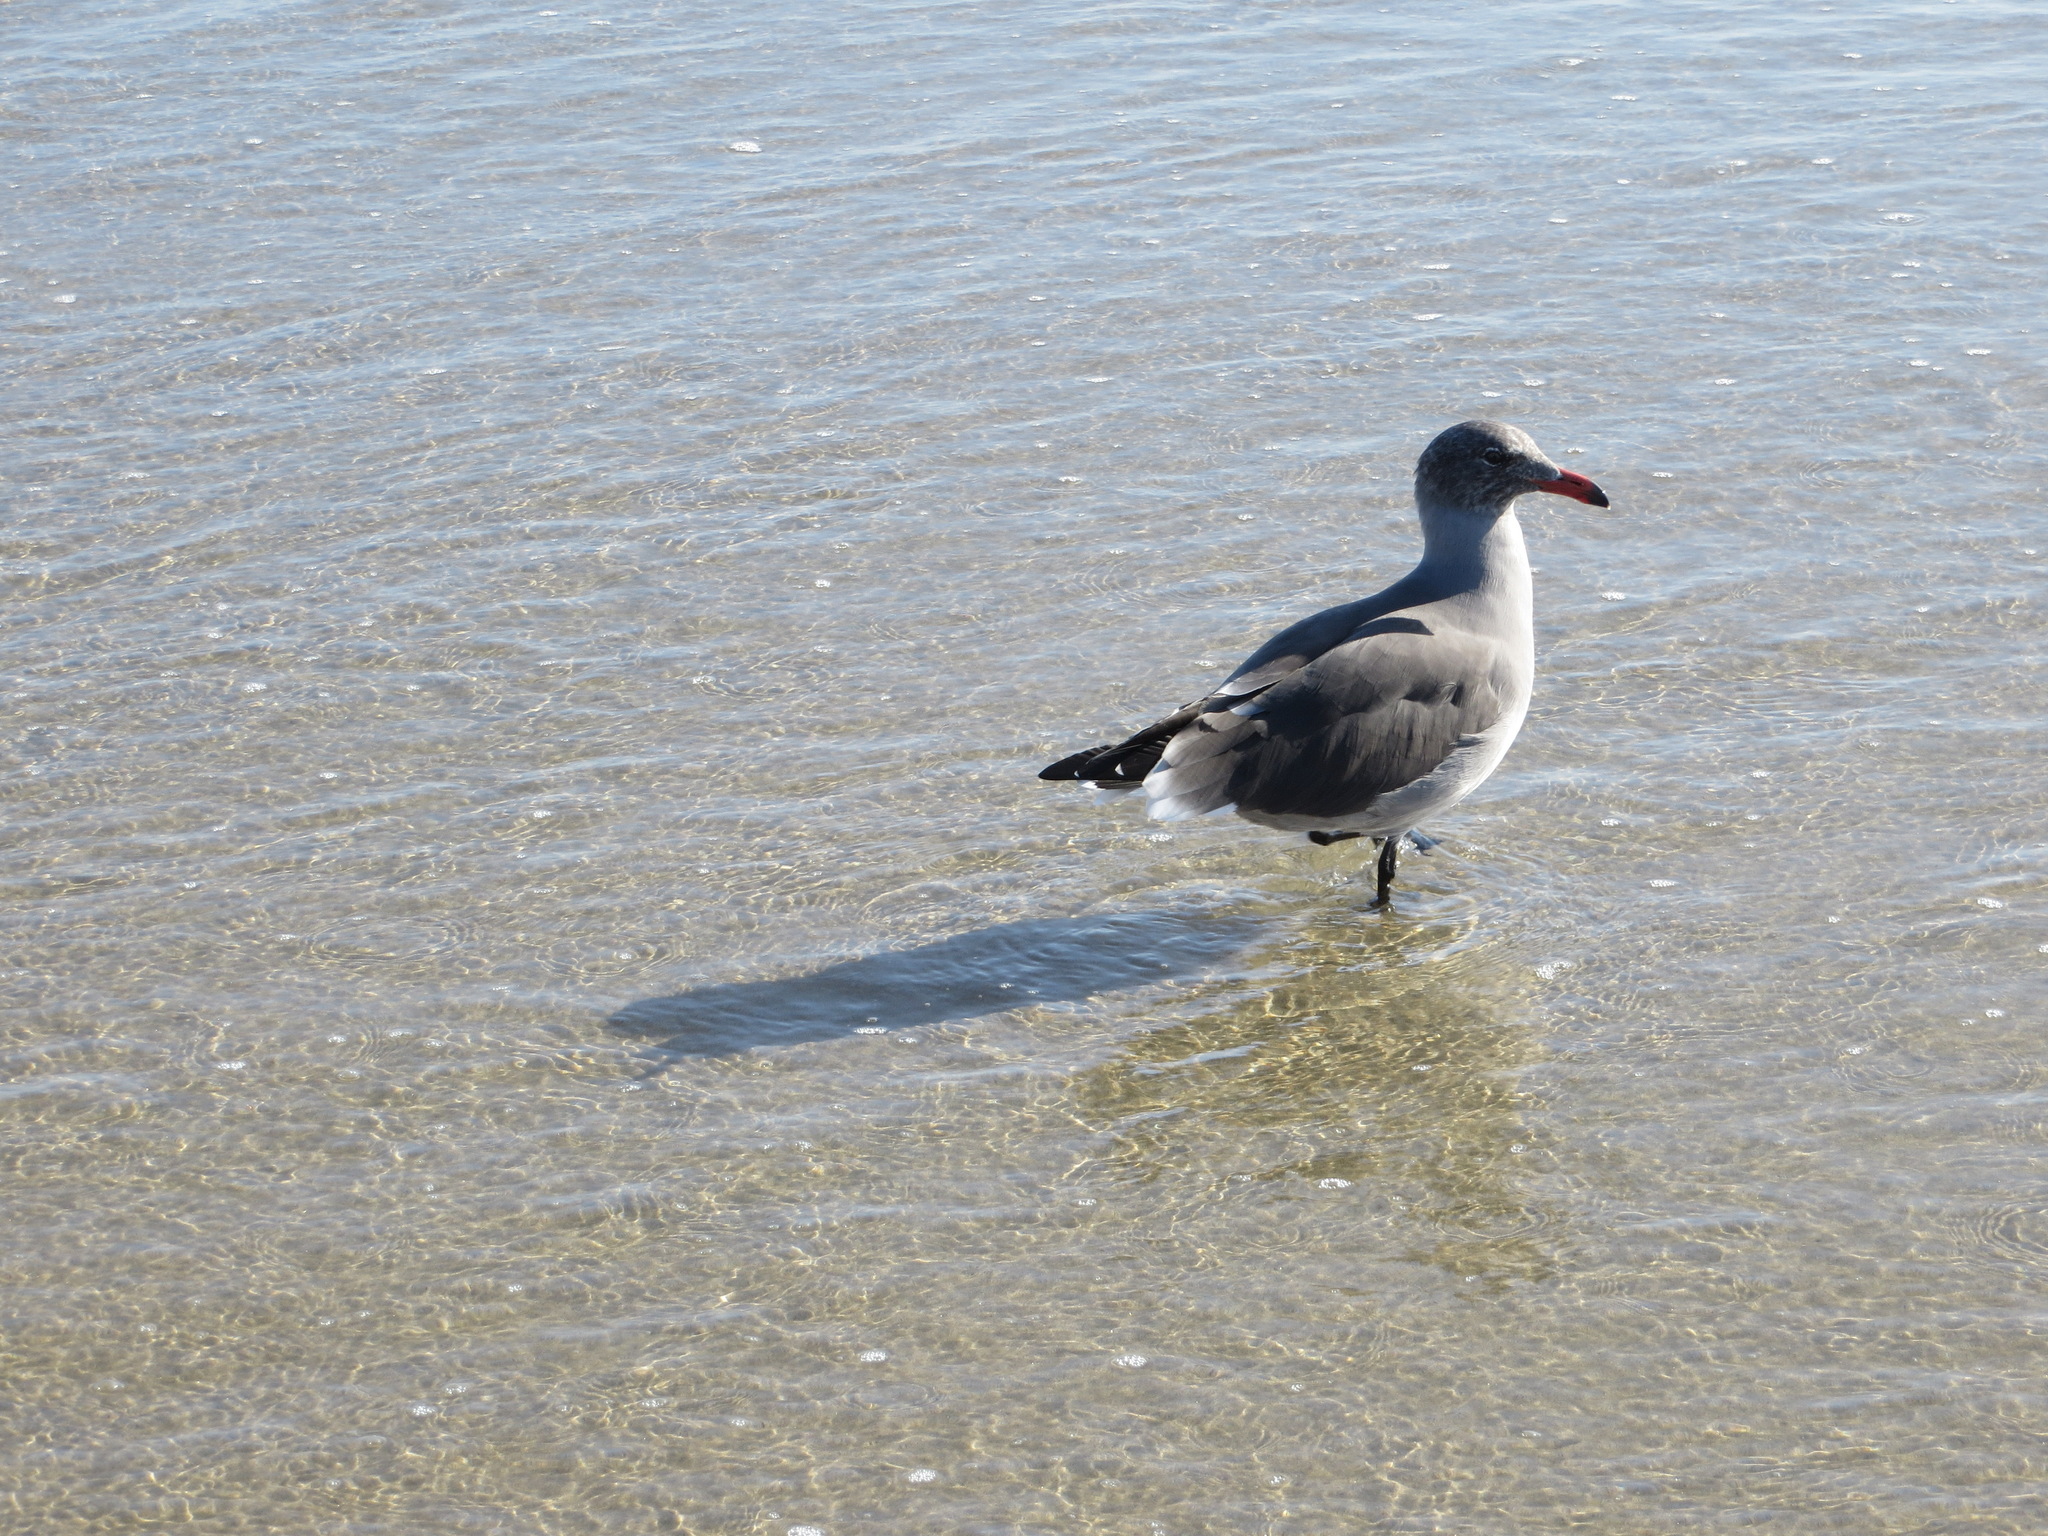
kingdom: Animalia
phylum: Chordata
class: Aves
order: Charadriiformes
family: Laridae
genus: Larus
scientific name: Larus heermanni
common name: Heermann's gull
